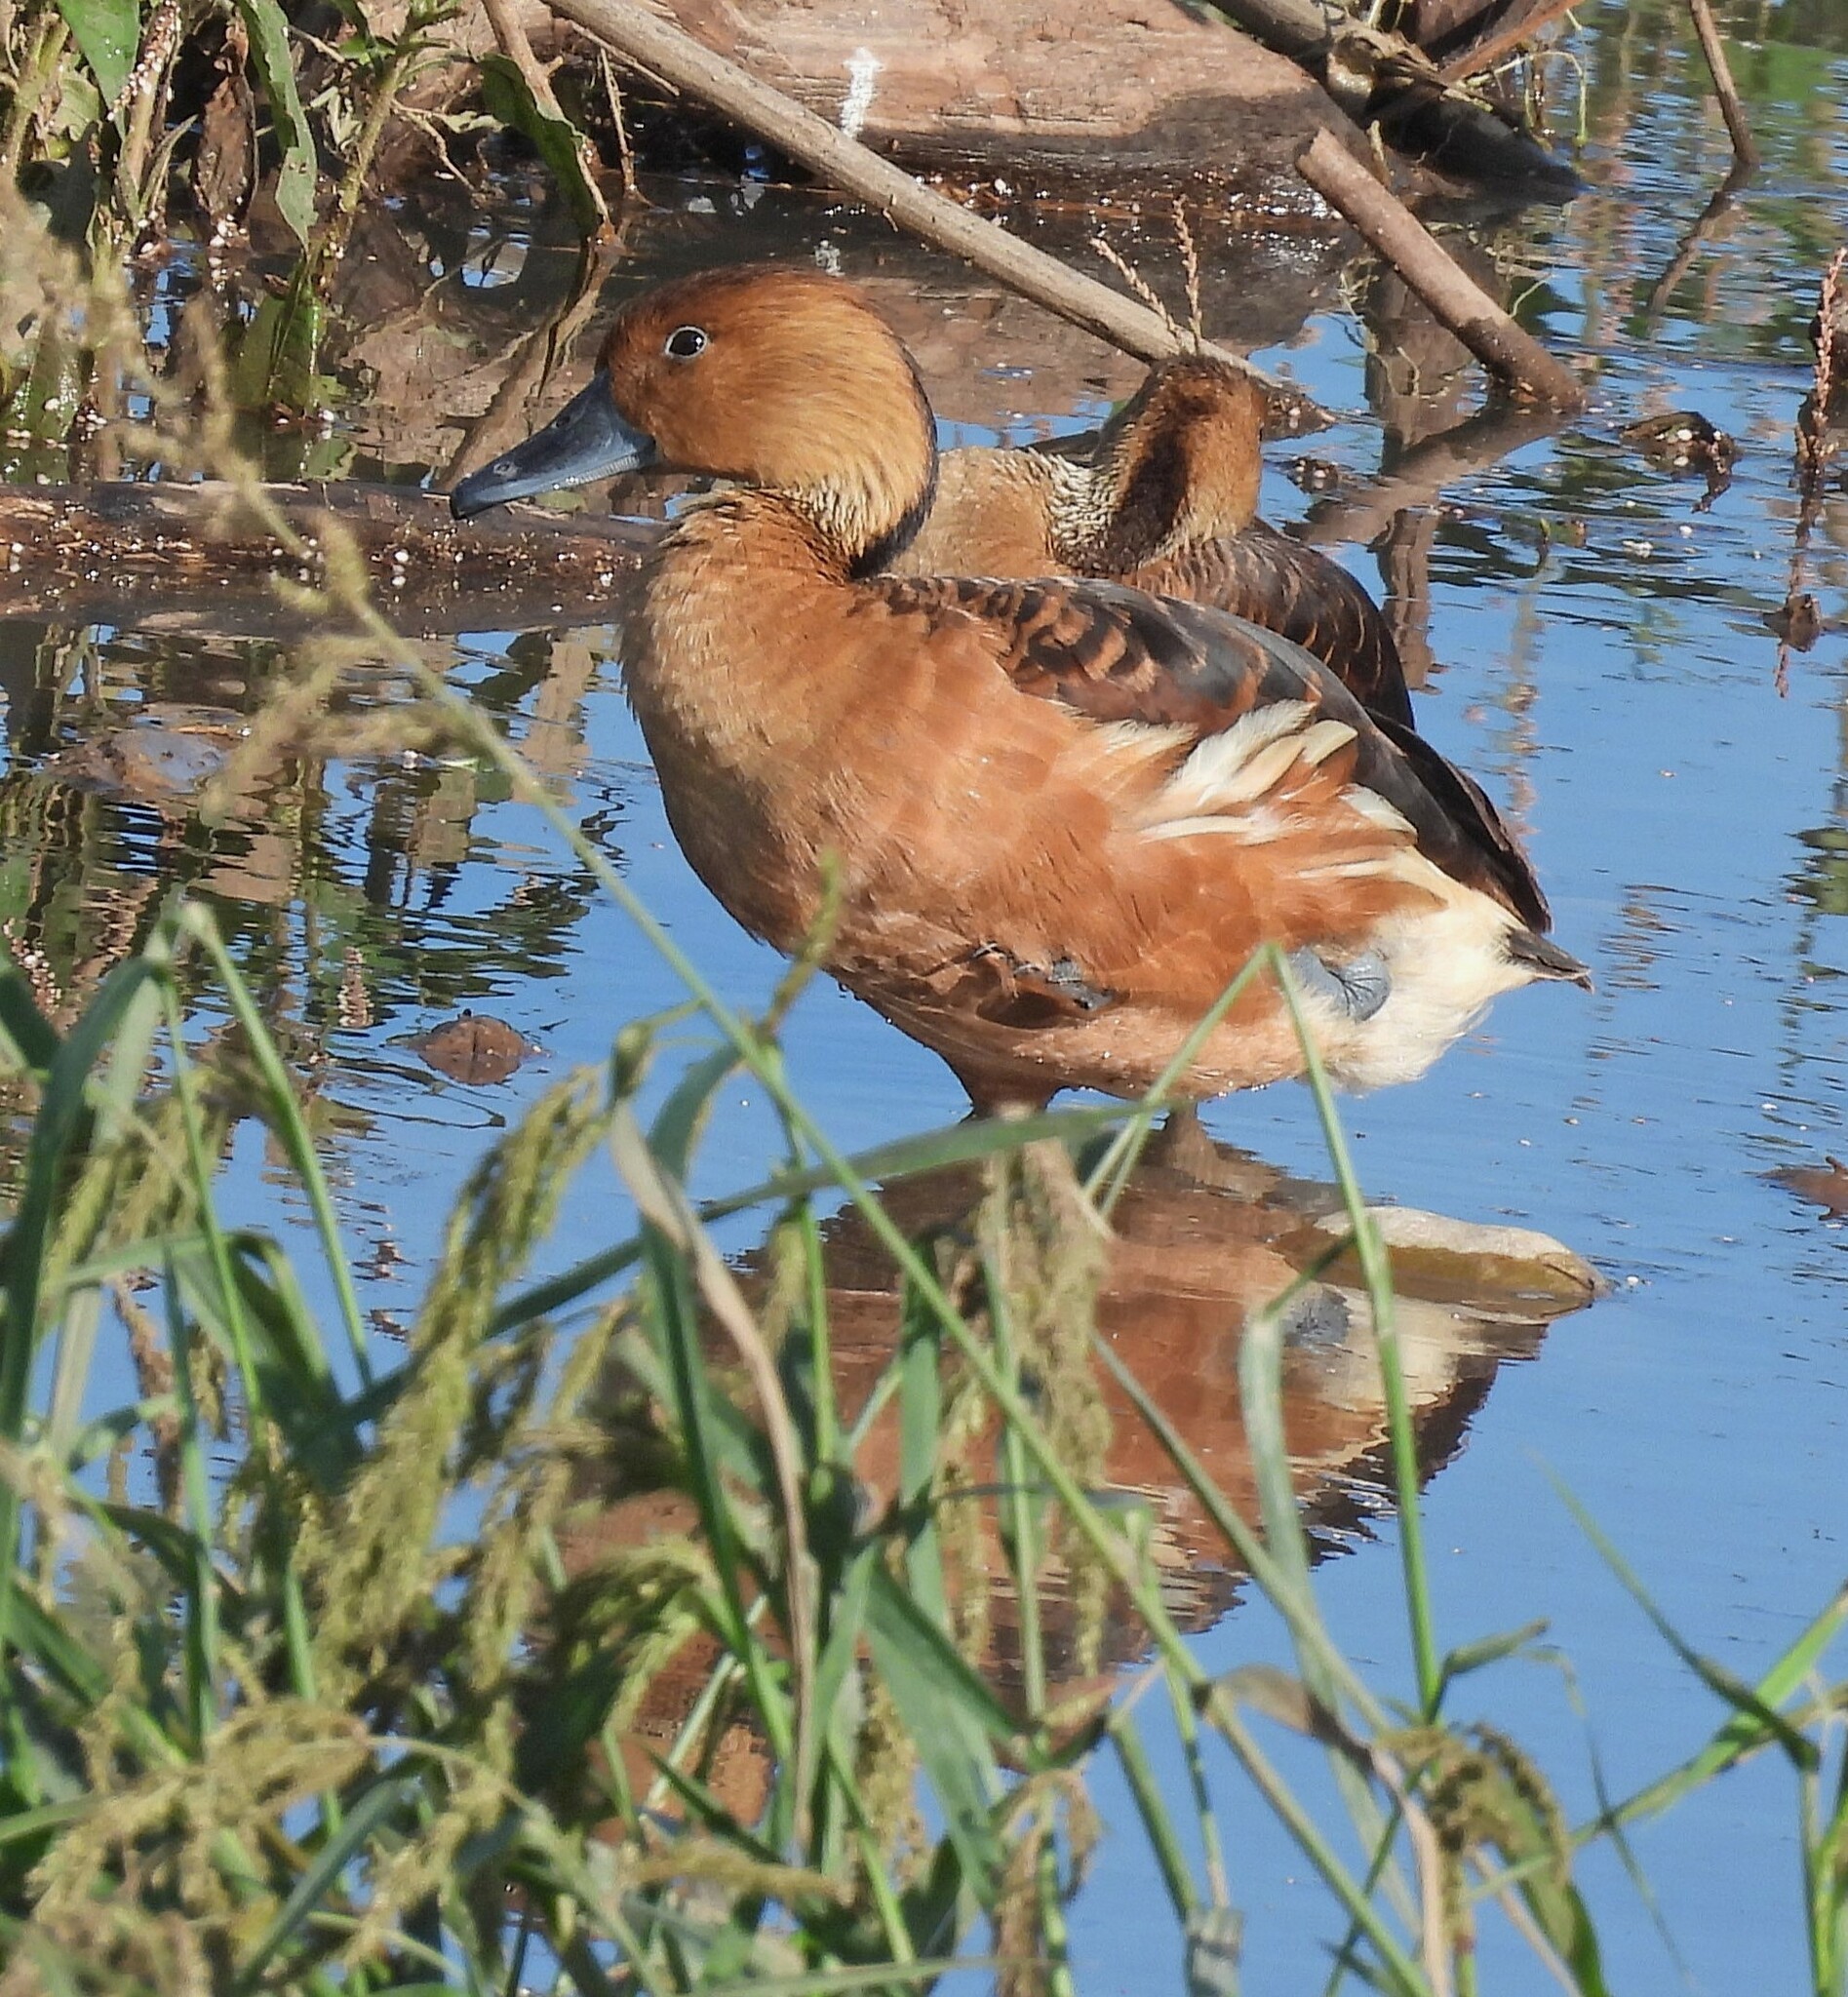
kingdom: Animalia
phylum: Chordata
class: Aves
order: Anseriformes
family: Anatidae
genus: Dendrocygna
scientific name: Dendrocygna bicolor
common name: Fulvous whistling duck
